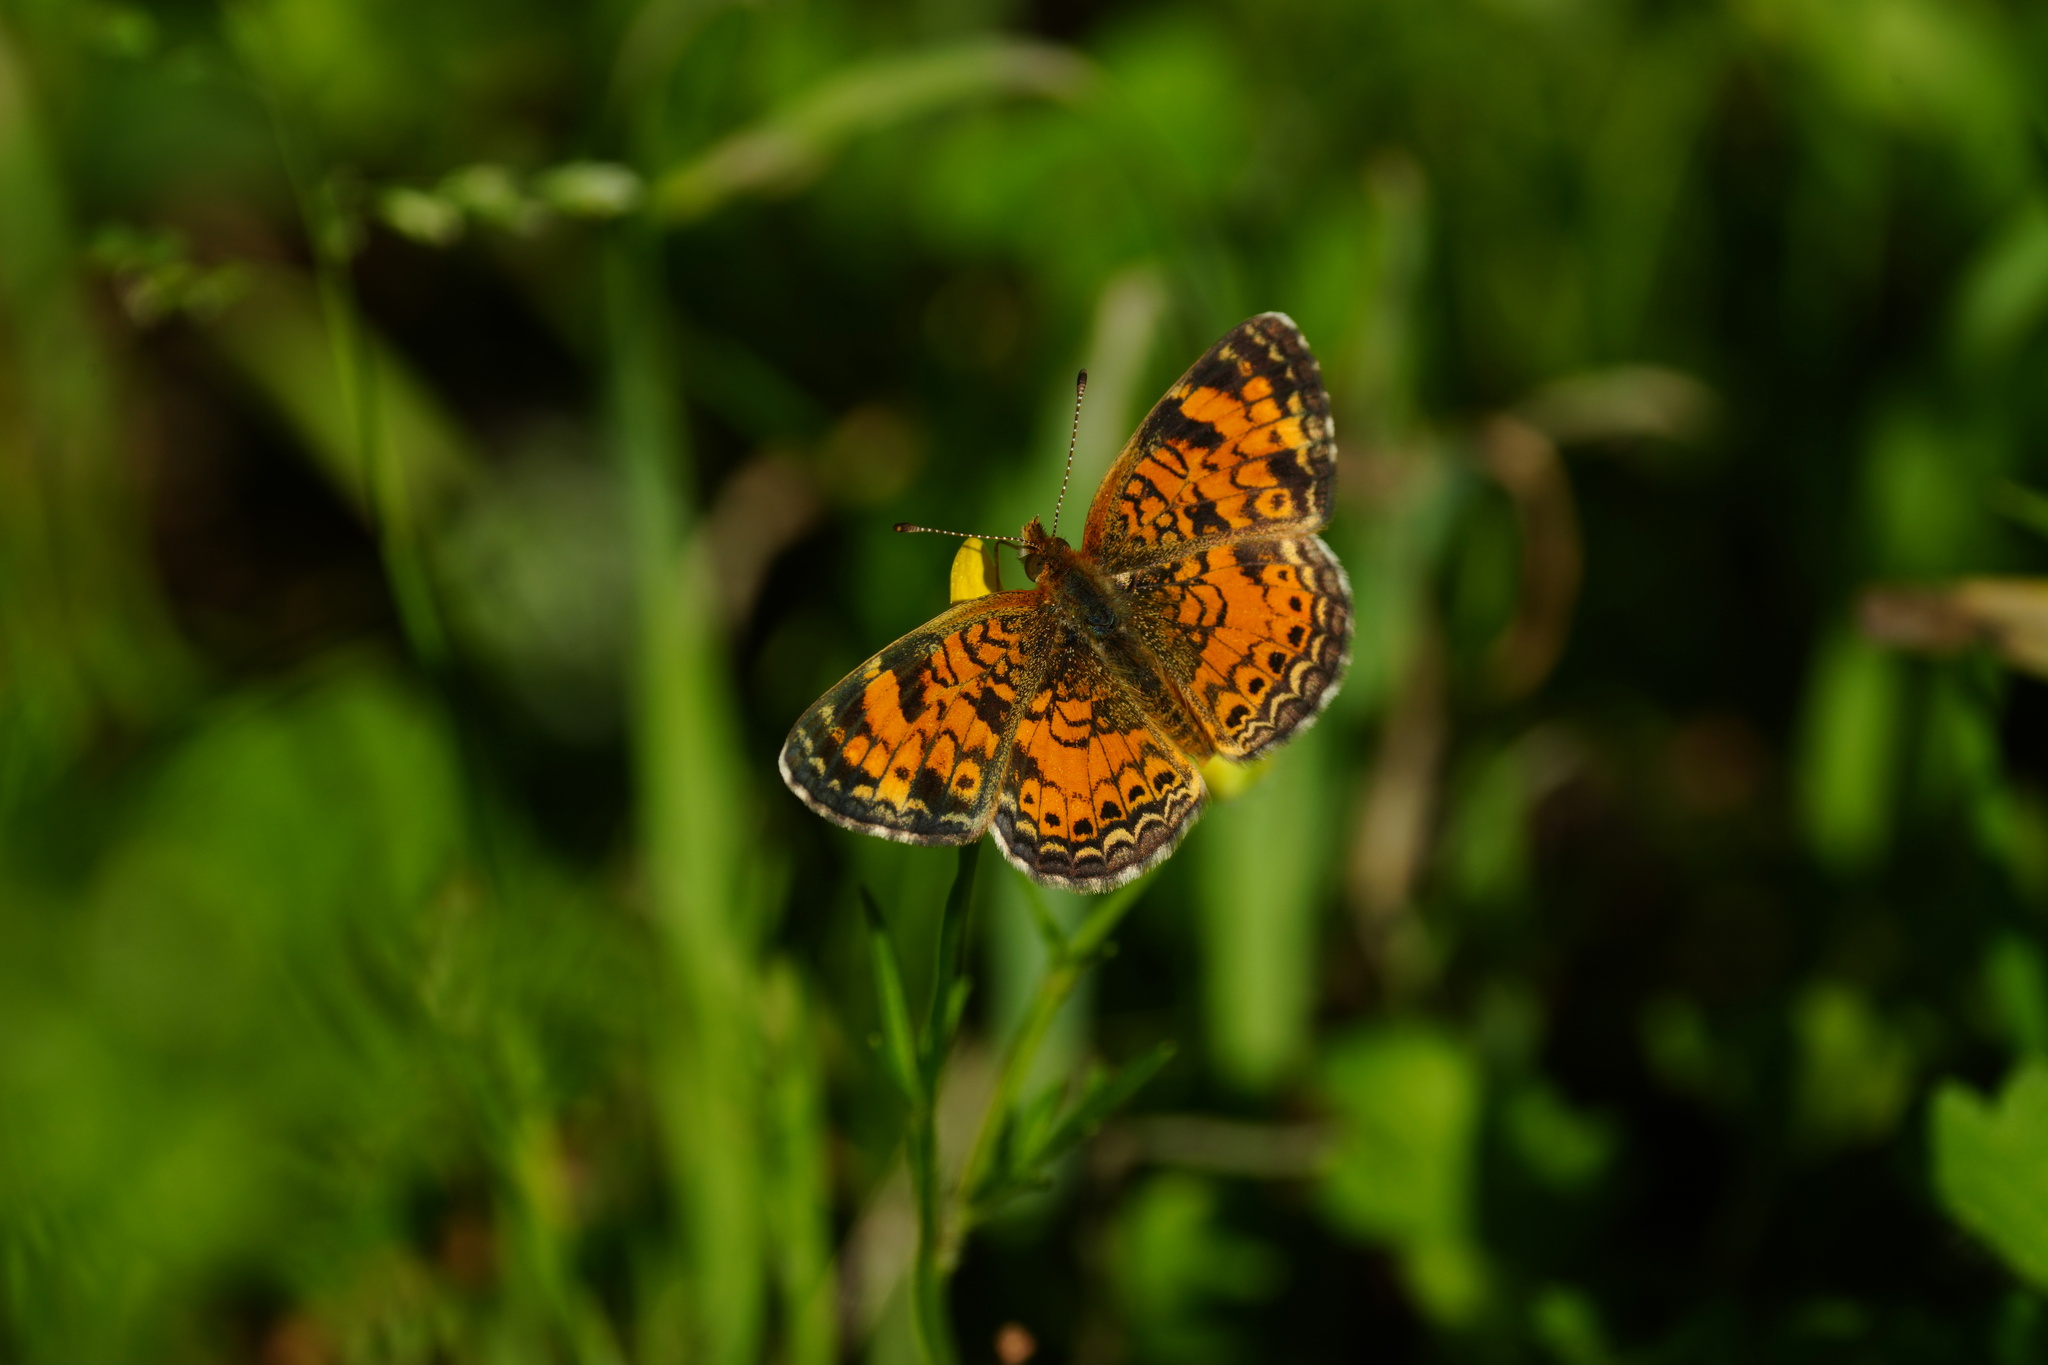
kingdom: Animalia
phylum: Arthropoda
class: Insecta
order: Lepidoptera
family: Nymphalidae
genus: Phyciodes
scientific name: Phyciodes tharos
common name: Pearl crescent
